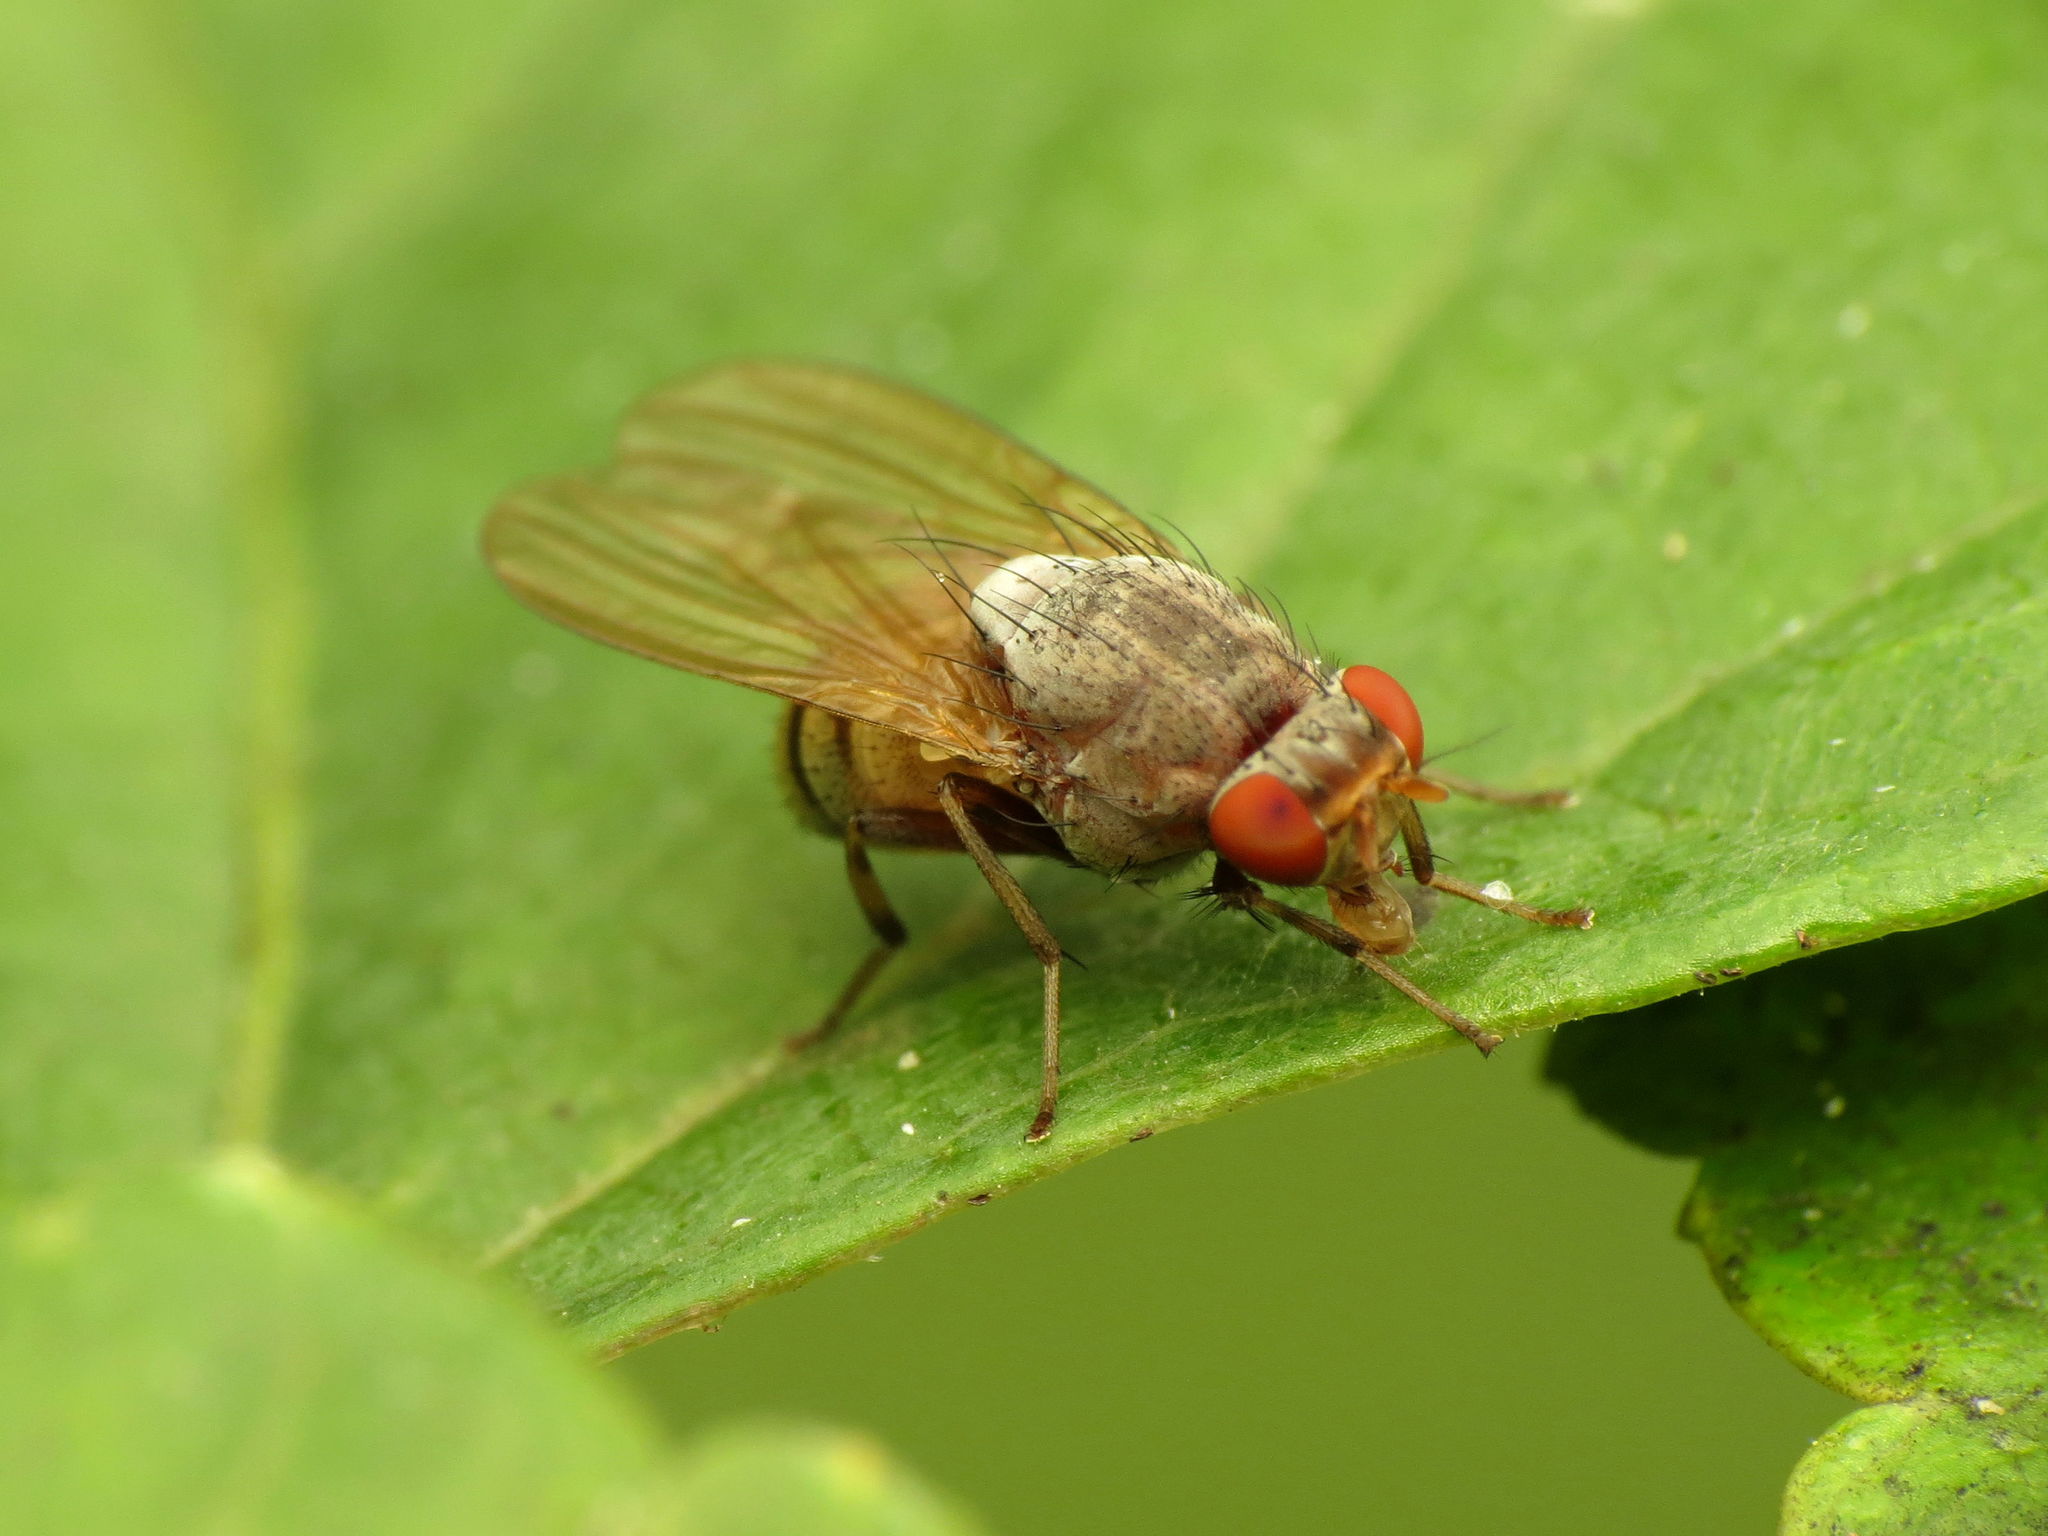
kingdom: Animalia
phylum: Arthropoda
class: Insecta
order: Diptera
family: Lauxaniidae
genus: Minettia
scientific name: Minettia magna
